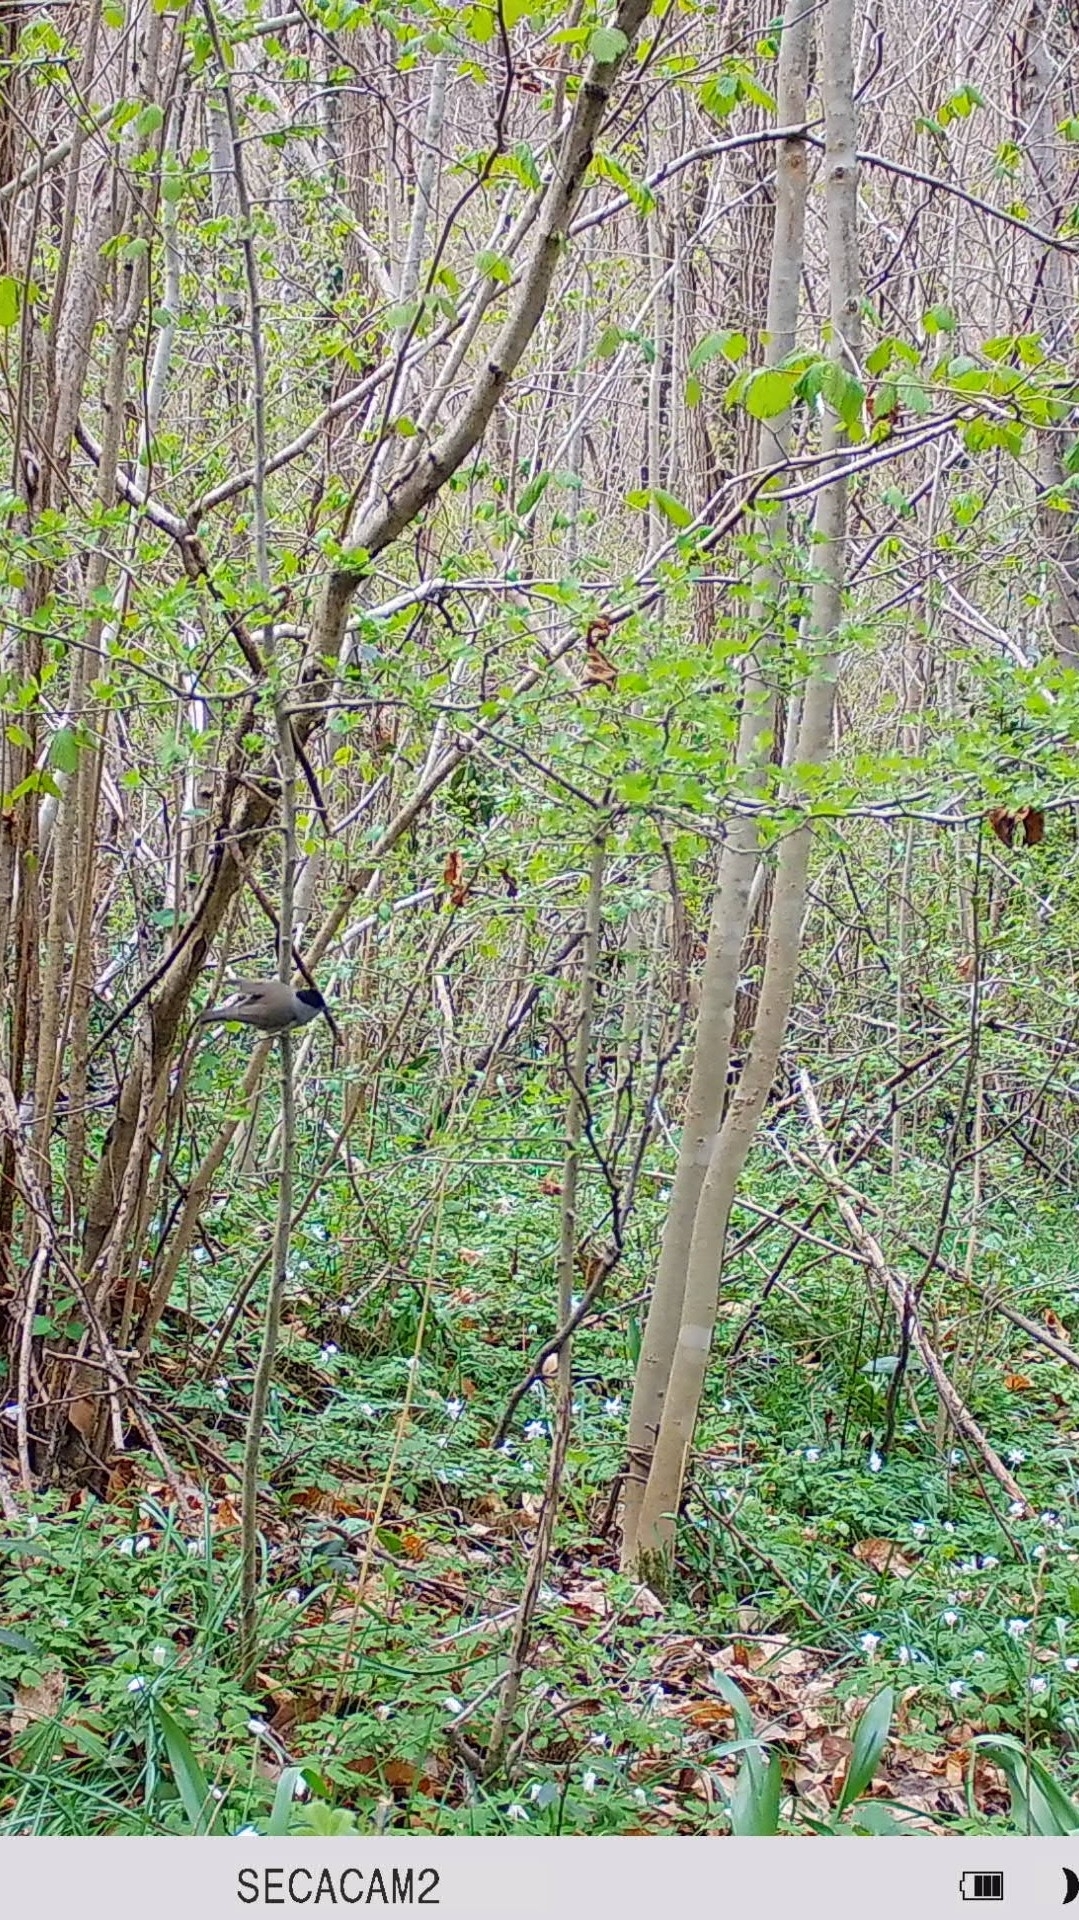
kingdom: Animalia
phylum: Chordata
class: Aves
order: Passeriformes
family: Sylviidae
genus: Sylvia
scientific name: Sylvia atricapilla
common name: Eurasian blackcap
